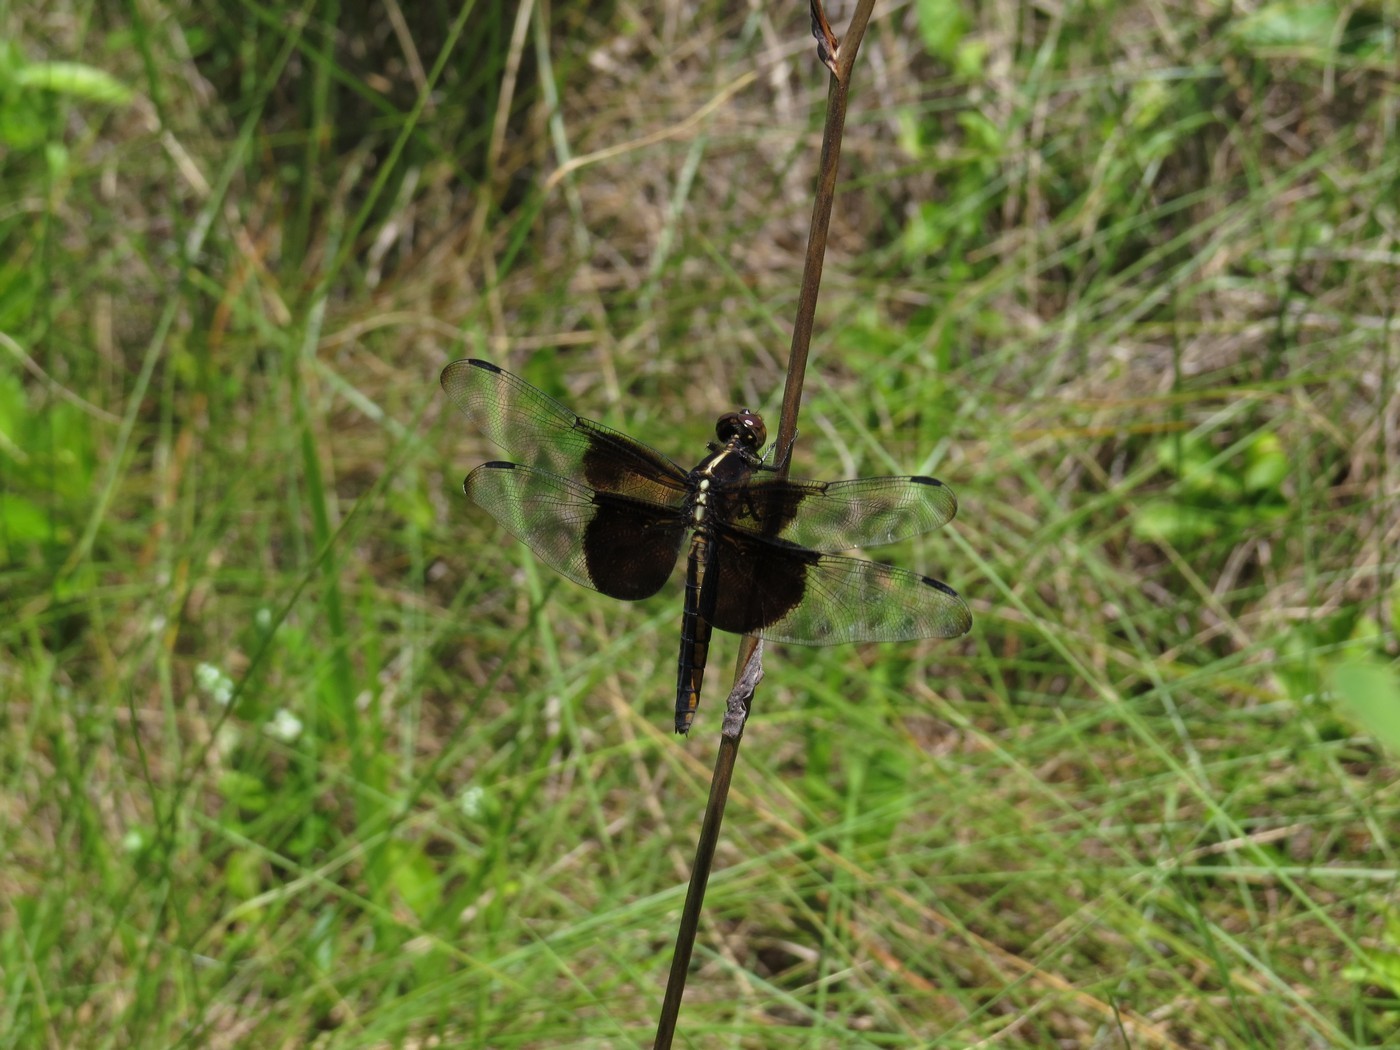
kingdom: Animalia
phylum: Arthropoda
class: Insecta
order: Odonata
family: Libellulidae
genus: Libellula
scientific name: Libellula luctuosa
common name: Widow skimmer
